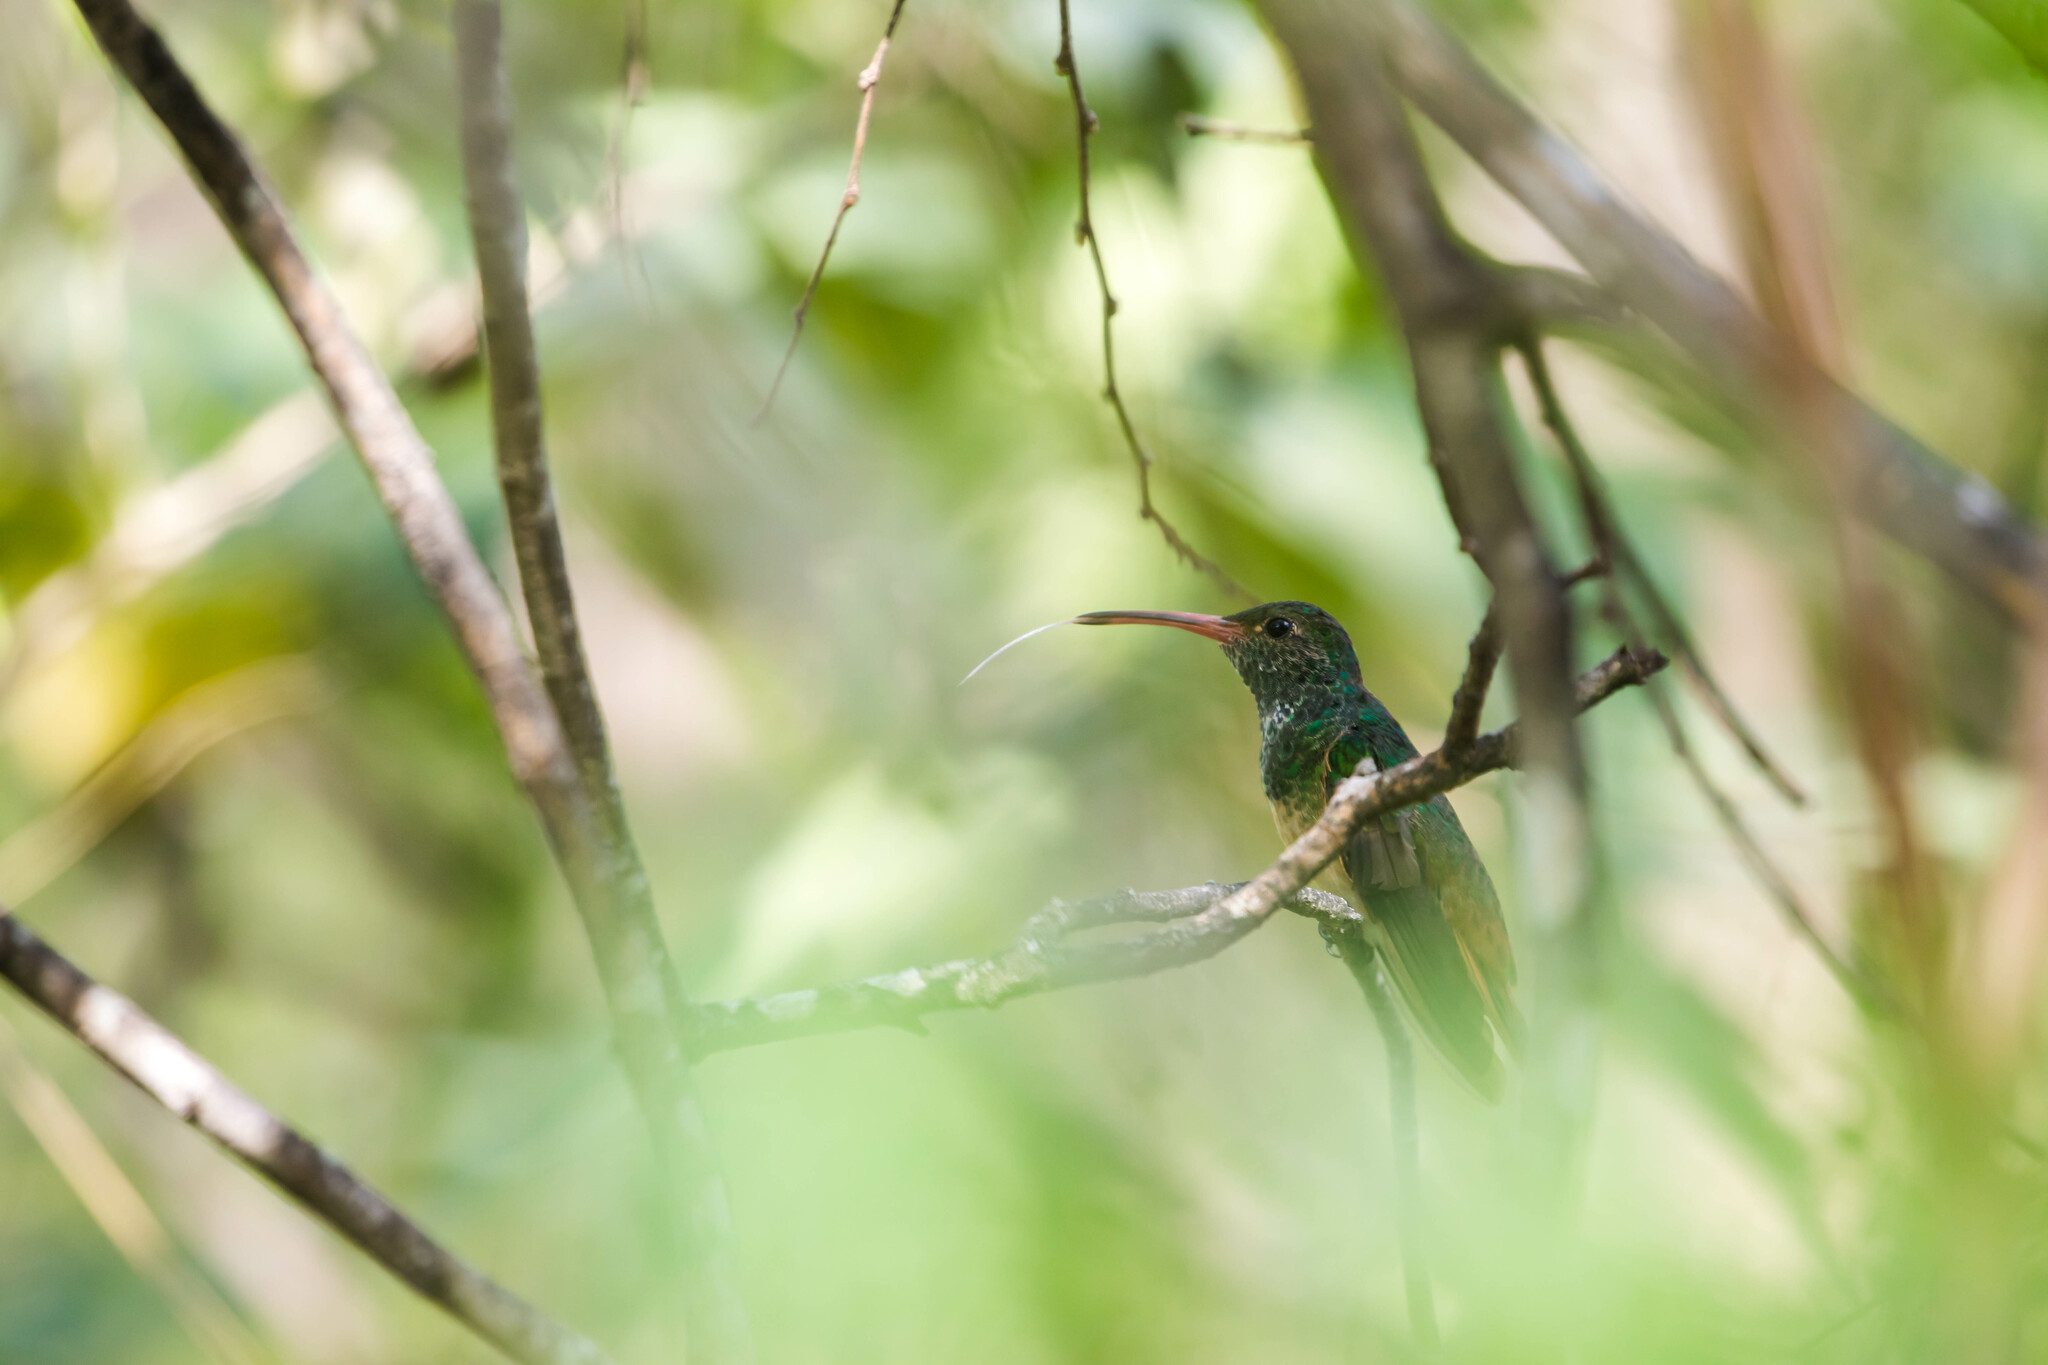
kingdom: Animalia
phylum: Chordata
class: Aves
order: Apodiformes
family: Trochilidae
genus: Amazilia
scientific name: Amazilia yucatanensis
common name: Buff-bellied hummingbird
